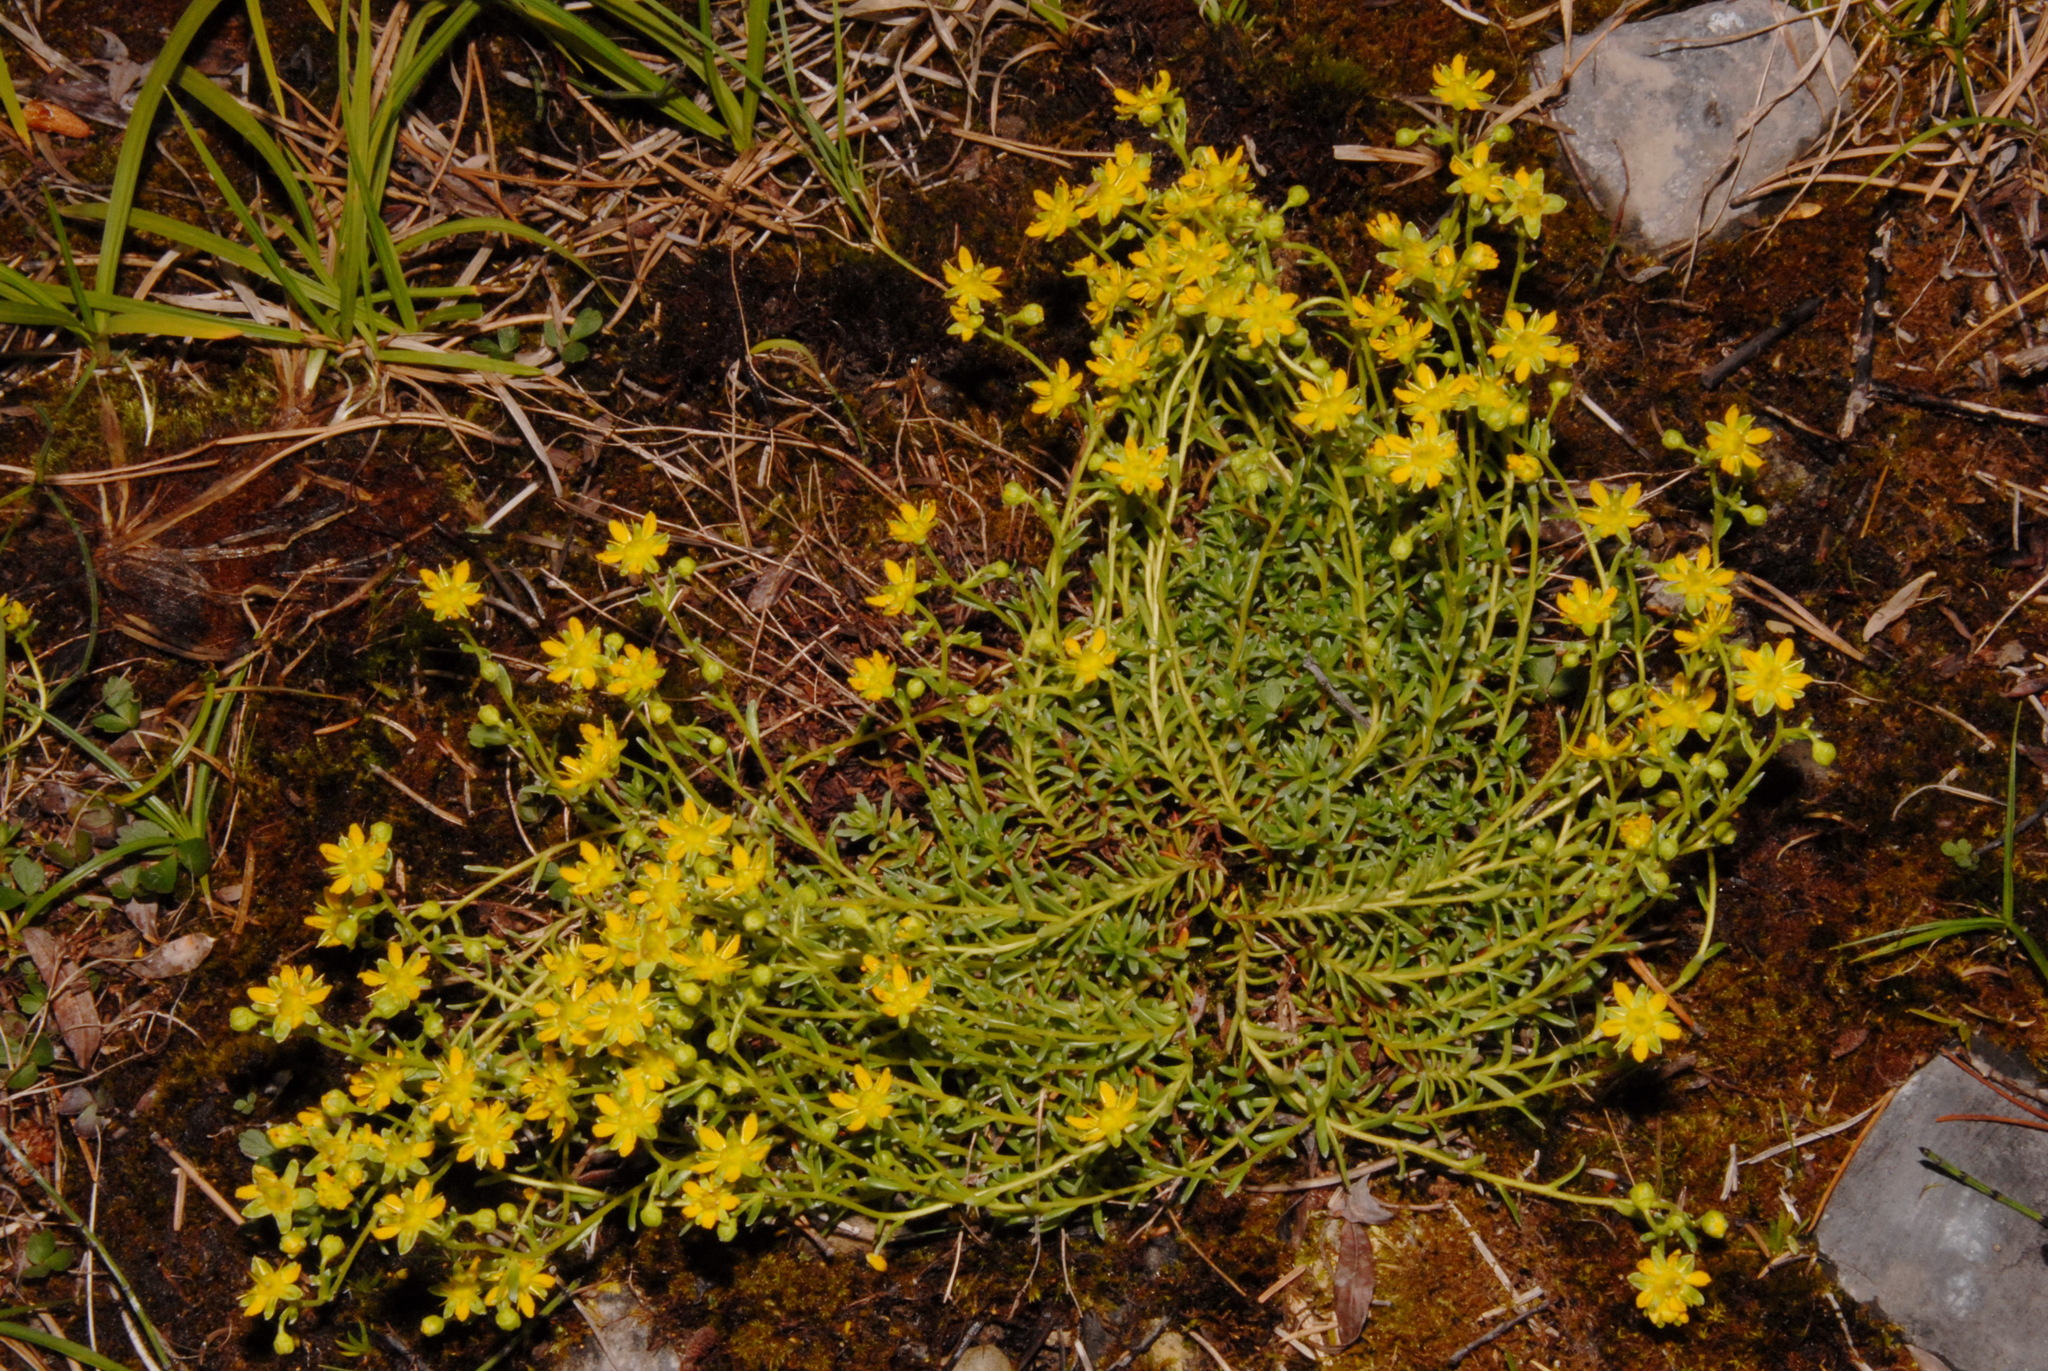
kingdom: Plantae
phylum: Tracheophyta
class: Magnoliopsida
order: Saxifragales
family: Saxifragaceae
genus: Saxifraga
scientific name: Saxifraga aizoides
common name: Yellow mountain saxifrage
